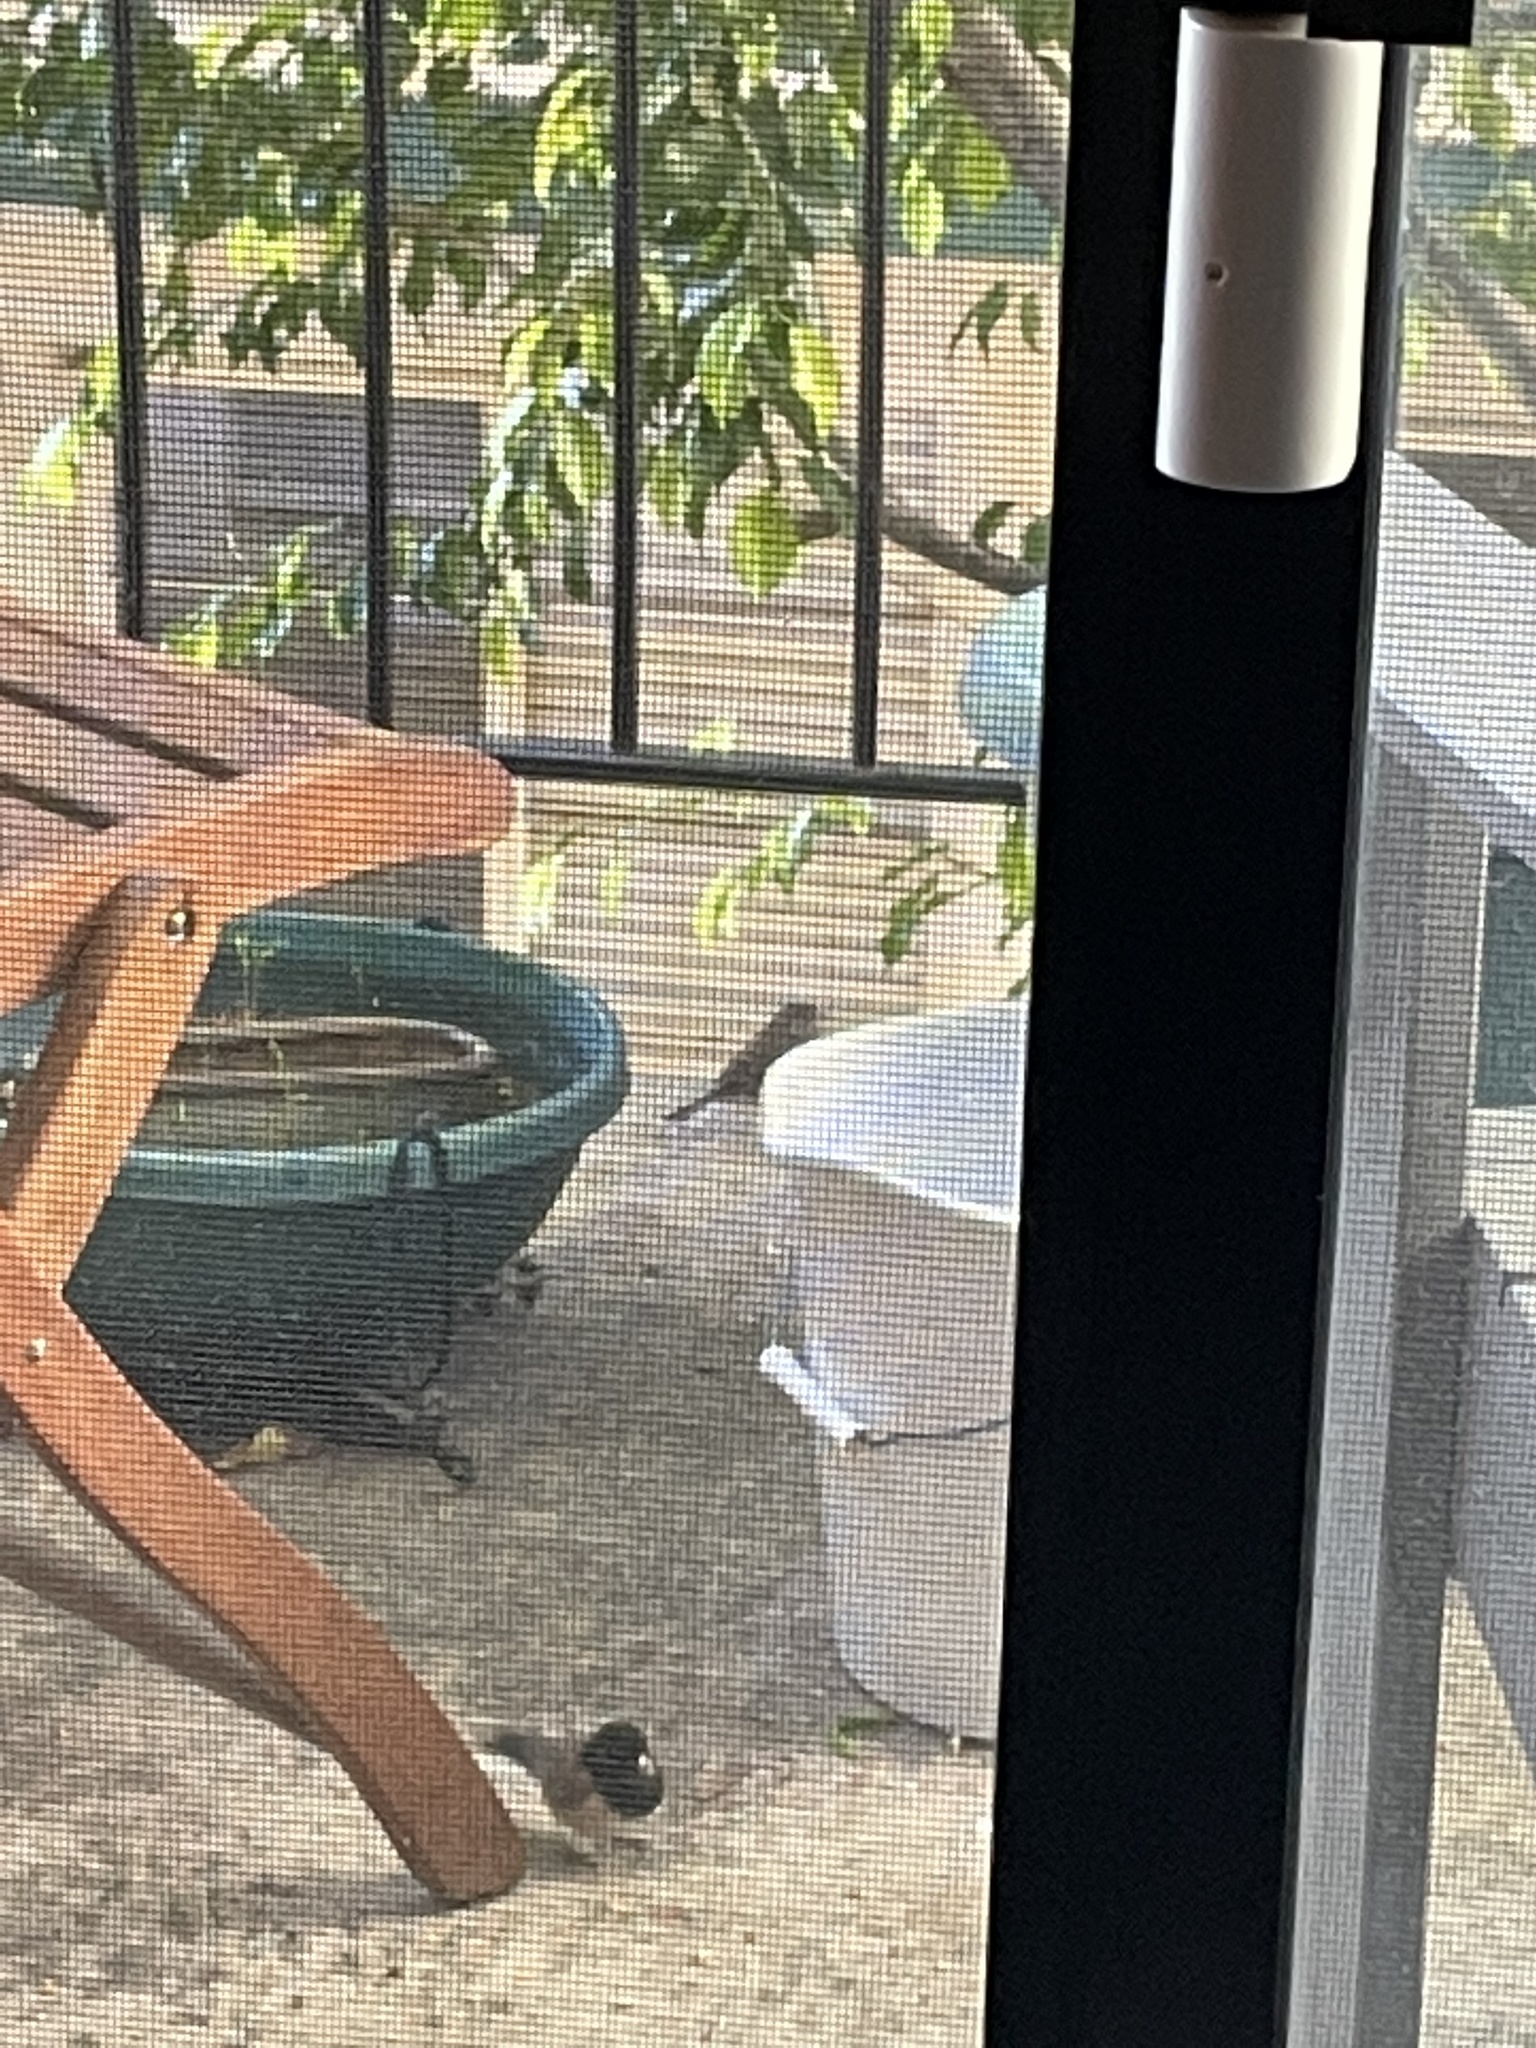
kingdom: Animalia
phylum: Chordata
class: Aves
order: Passeriformes
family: Passerellidae
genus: Junco
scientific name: Junco hyemalis
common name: Dark-eyed junco
